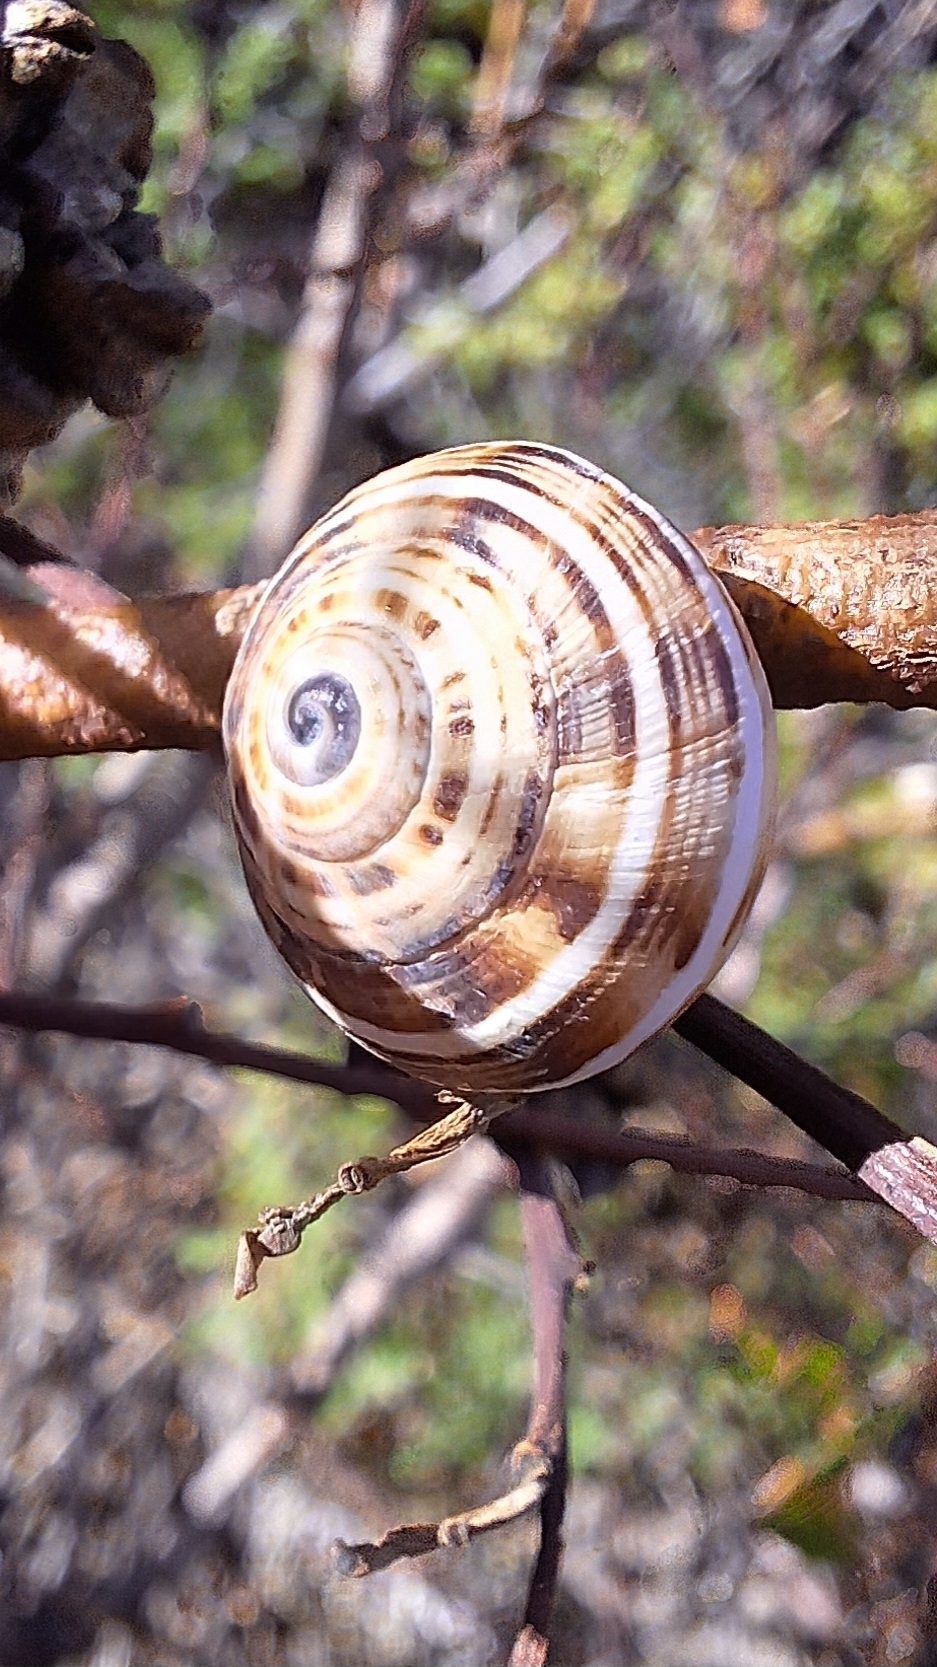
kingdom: Animalia
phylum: Mollusca
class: Gastropoda
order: Stylommatophora
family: Helicidae
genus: Theba
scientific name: Theba pisana
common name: White snail
